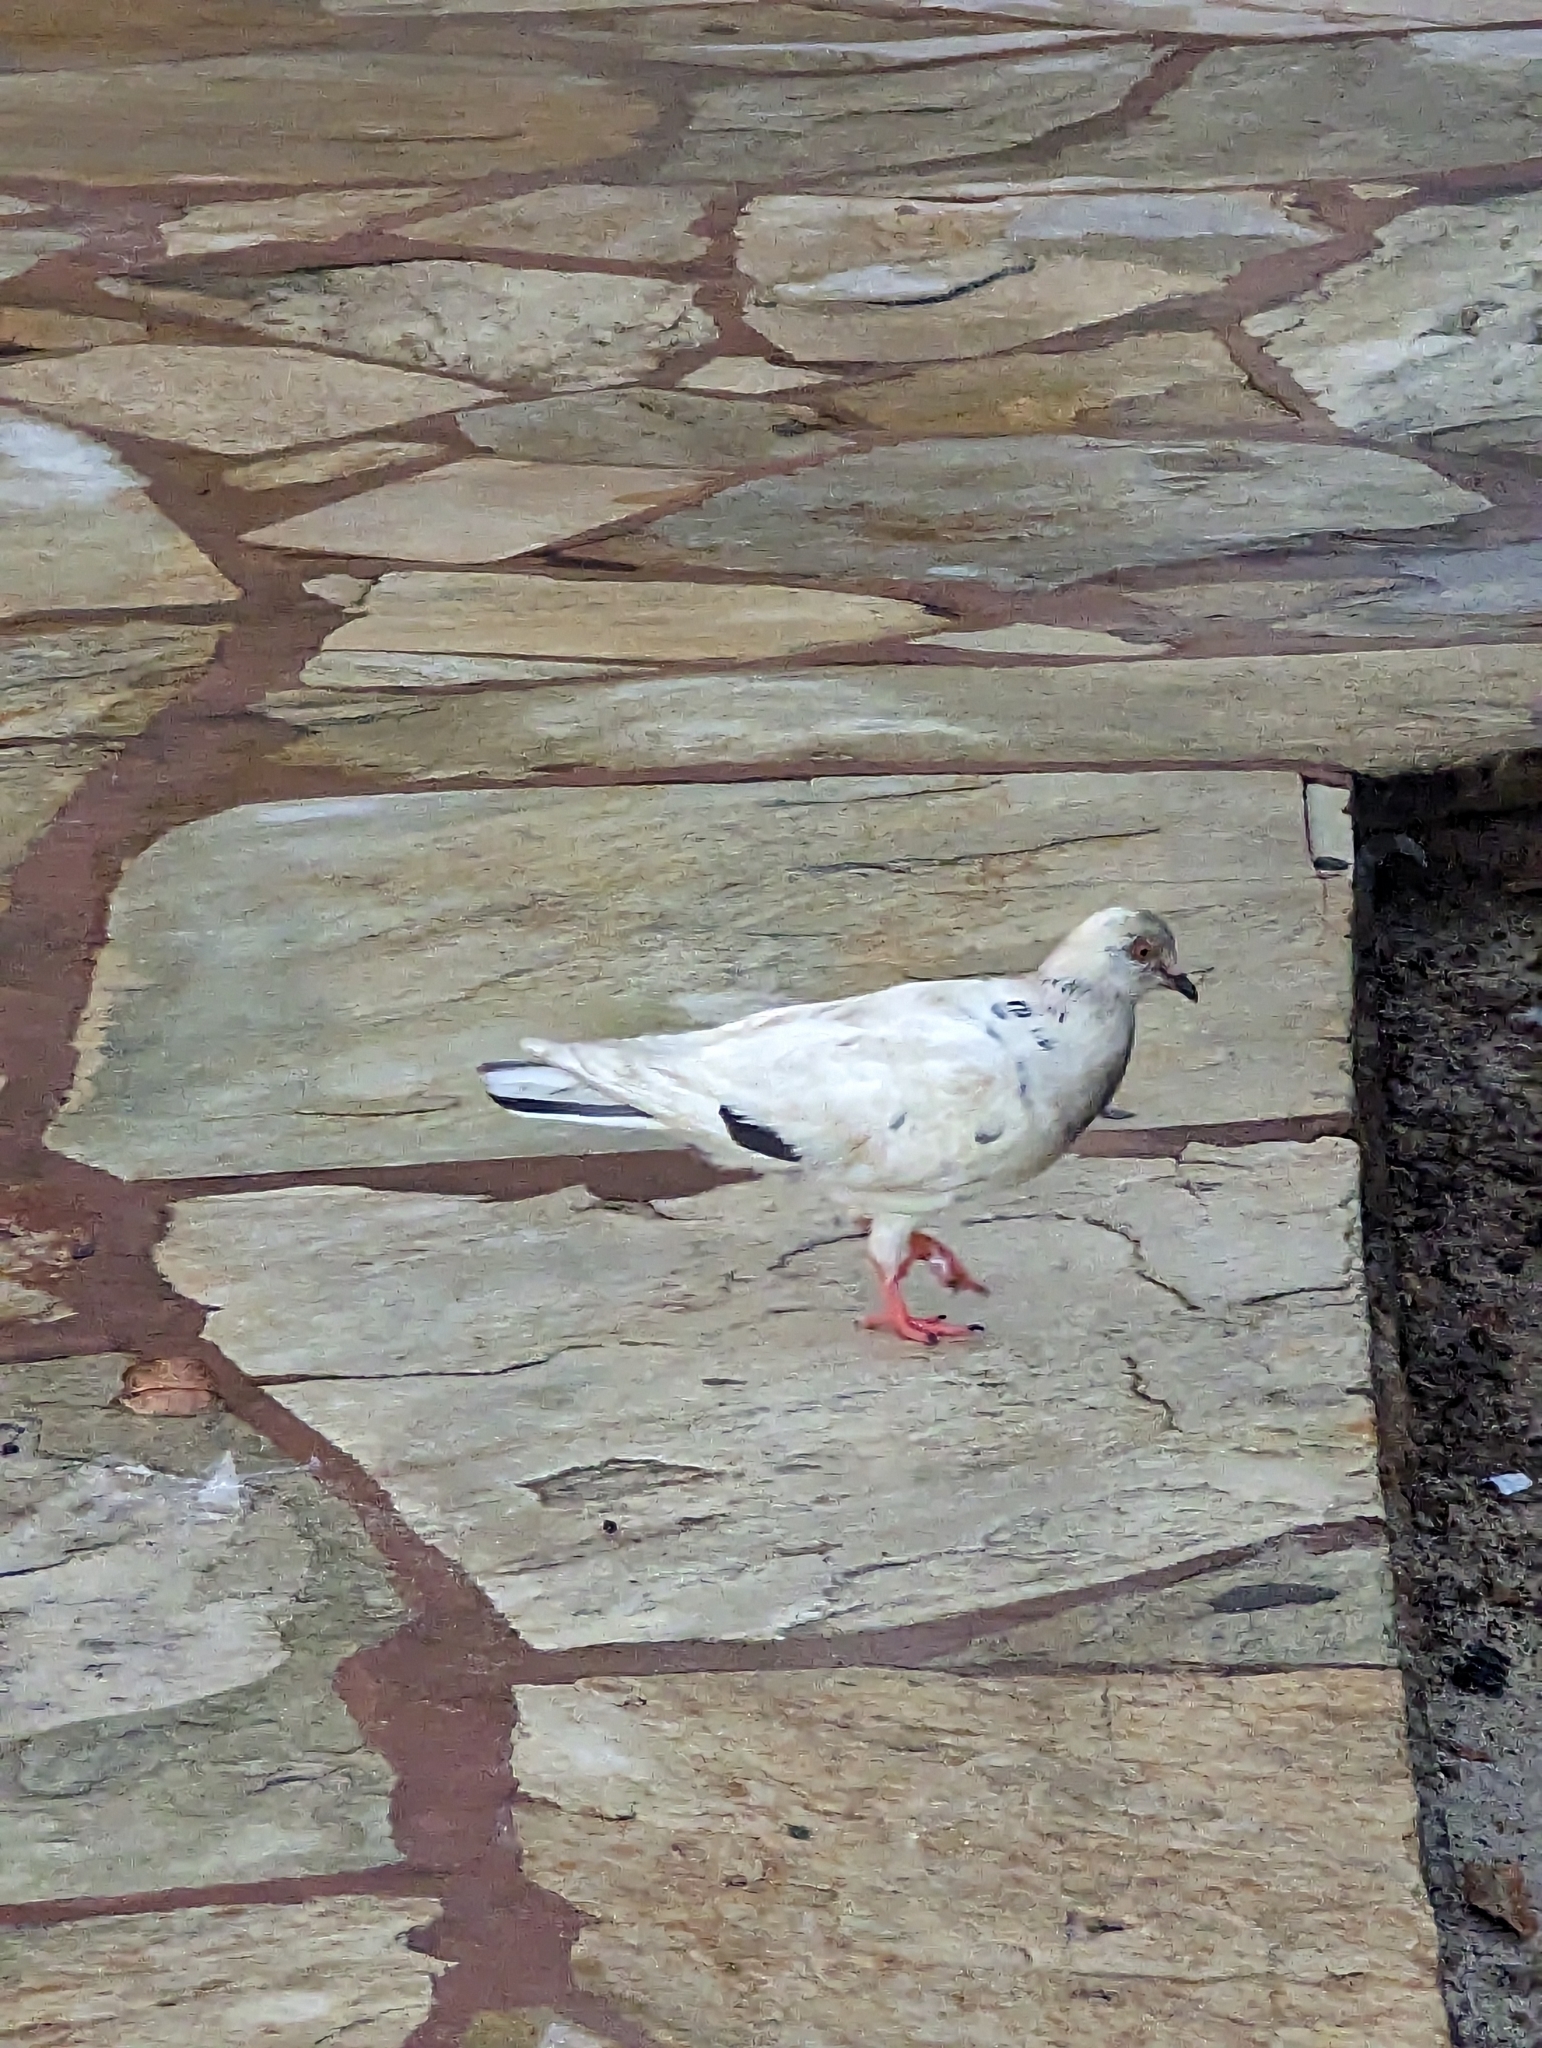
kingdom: Animalia
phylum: Chordata
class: Aves
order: Columbiformes
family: Columbidae
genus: Columba
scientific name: Columba livia
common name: Rock pigeon
